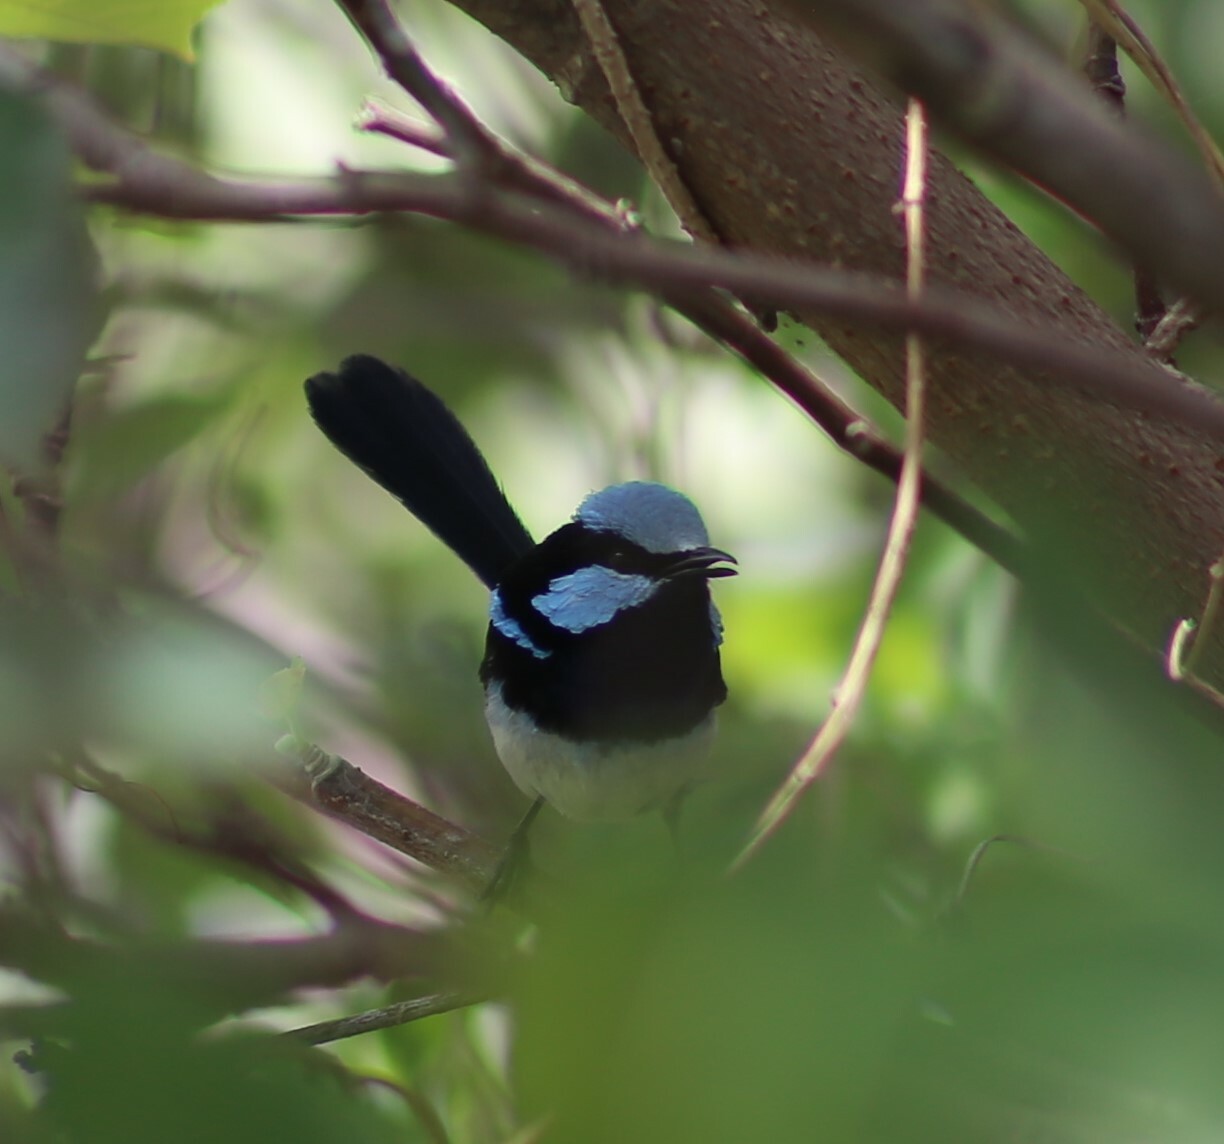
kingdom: Animalia
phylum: Chordata
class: Aves
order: Passeriformes
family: Maluridae
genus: Malurus
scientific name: Malurus cyaneus
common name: Superb fairywren
